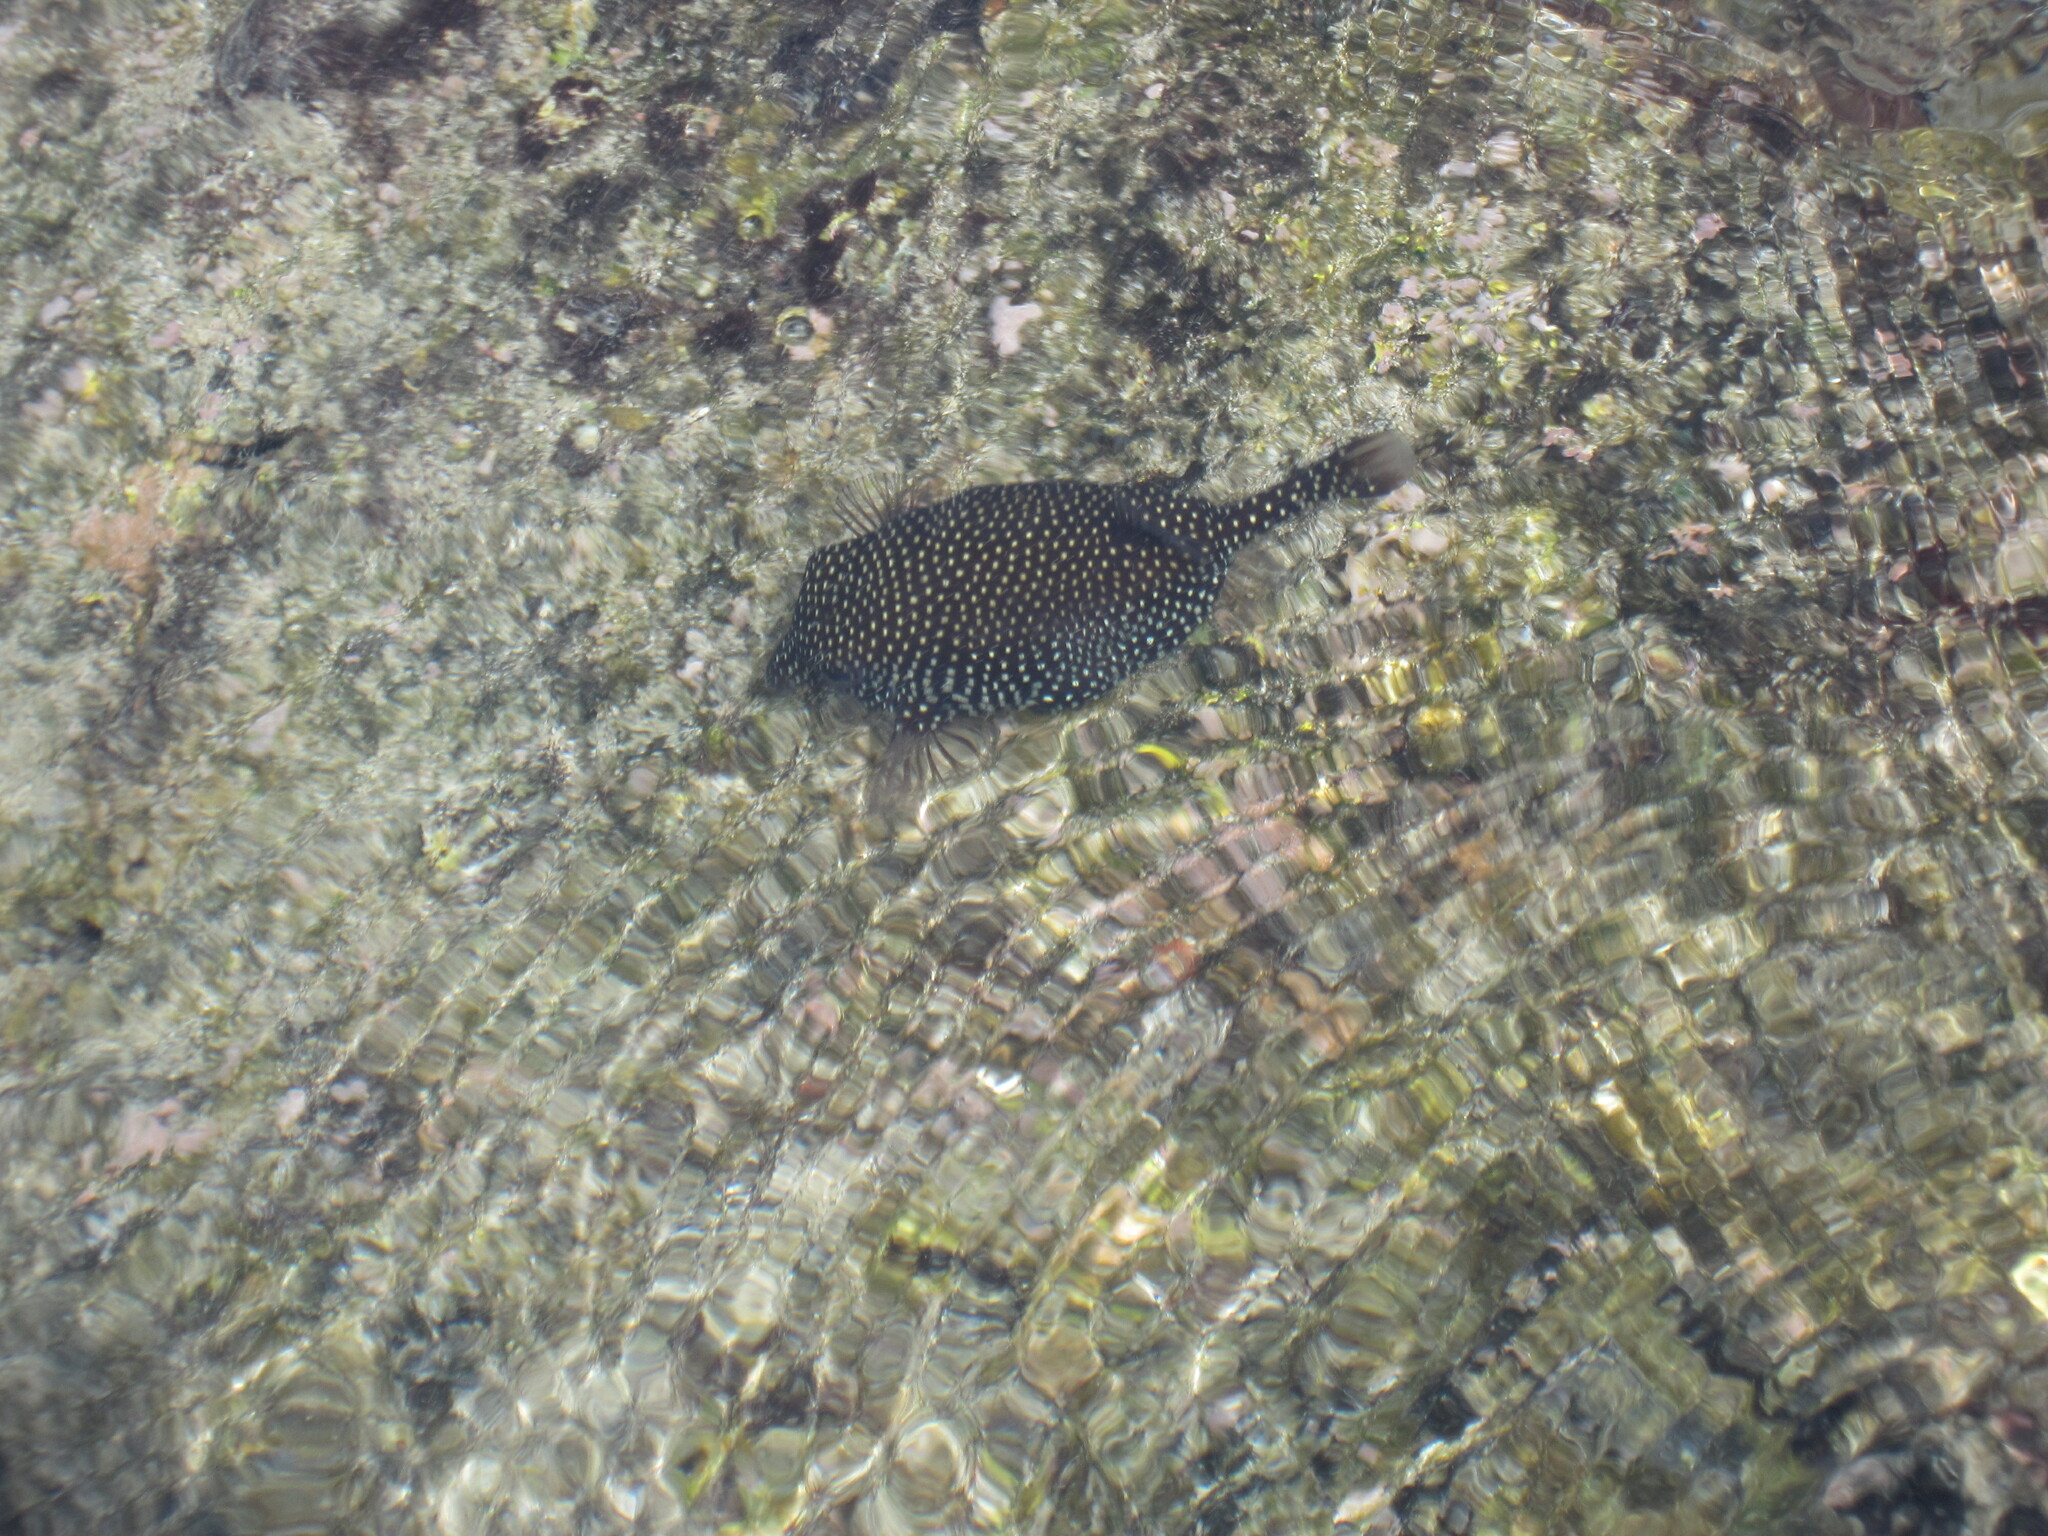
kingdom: Animalia
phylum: Chordata
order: Tetraodontiformes
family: Ostraciidae
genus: Ostracion
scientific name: Ostracion meleagris
